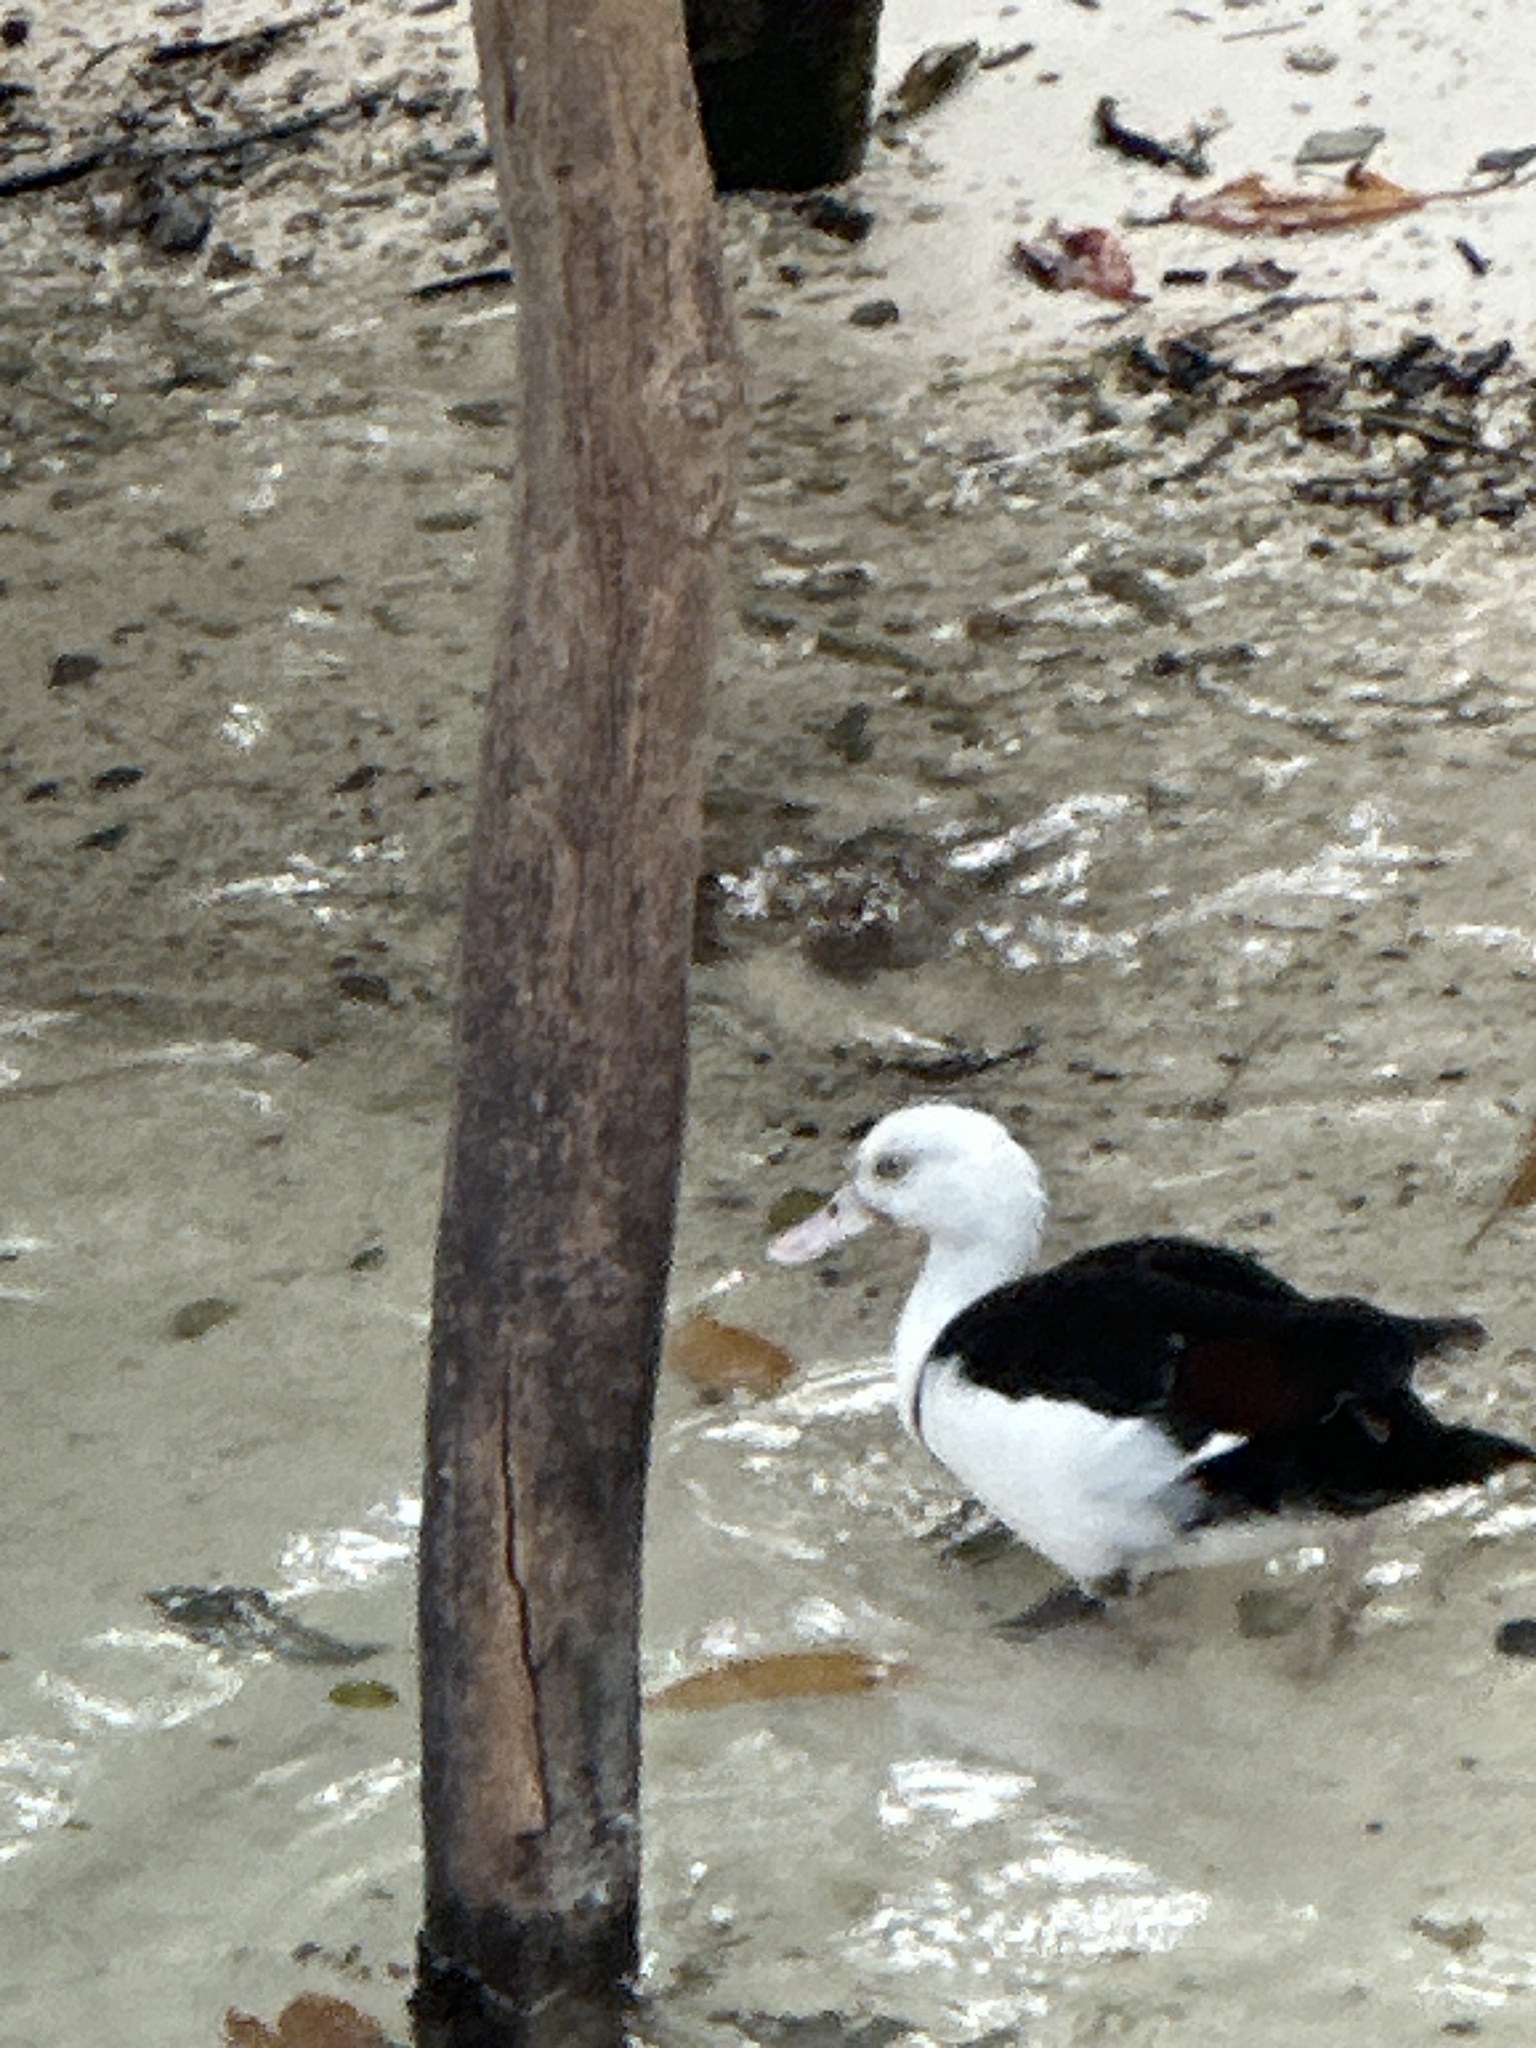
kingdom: Animalia
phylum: Chordata
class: Aves
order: Anseriformes
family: Anatidae
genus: Radjah
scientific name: Radjah radjah
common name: Radjah shelduck
